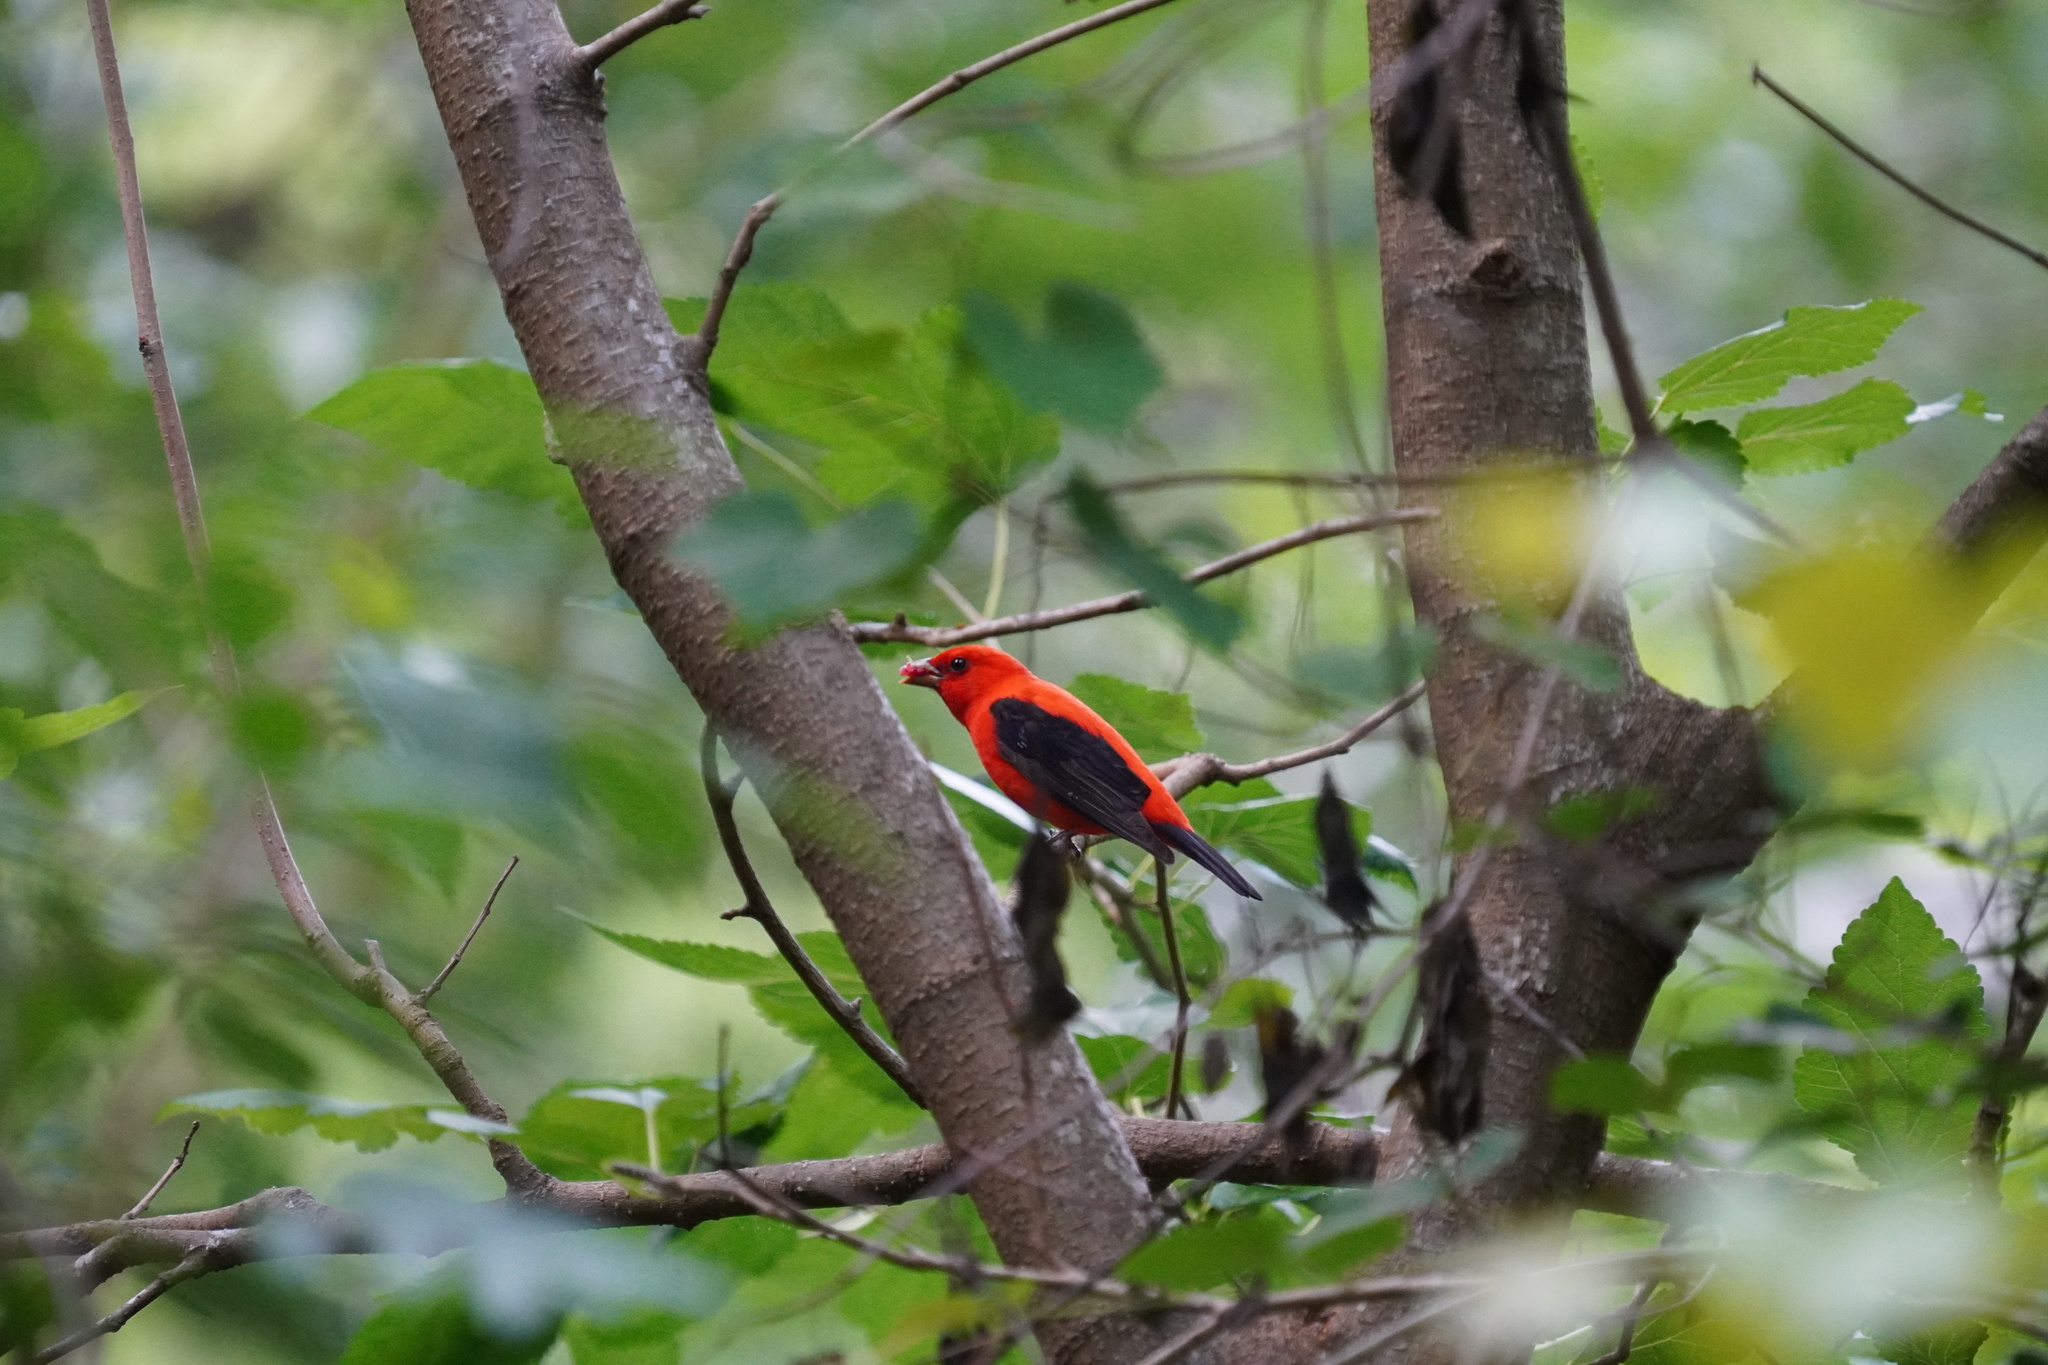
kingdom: Animalia
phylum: Chordata
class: Aves
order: Passeriformes
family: Cardinalidae
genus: Piranga
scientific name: Piranga olivacea
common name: Scarlet tanager
